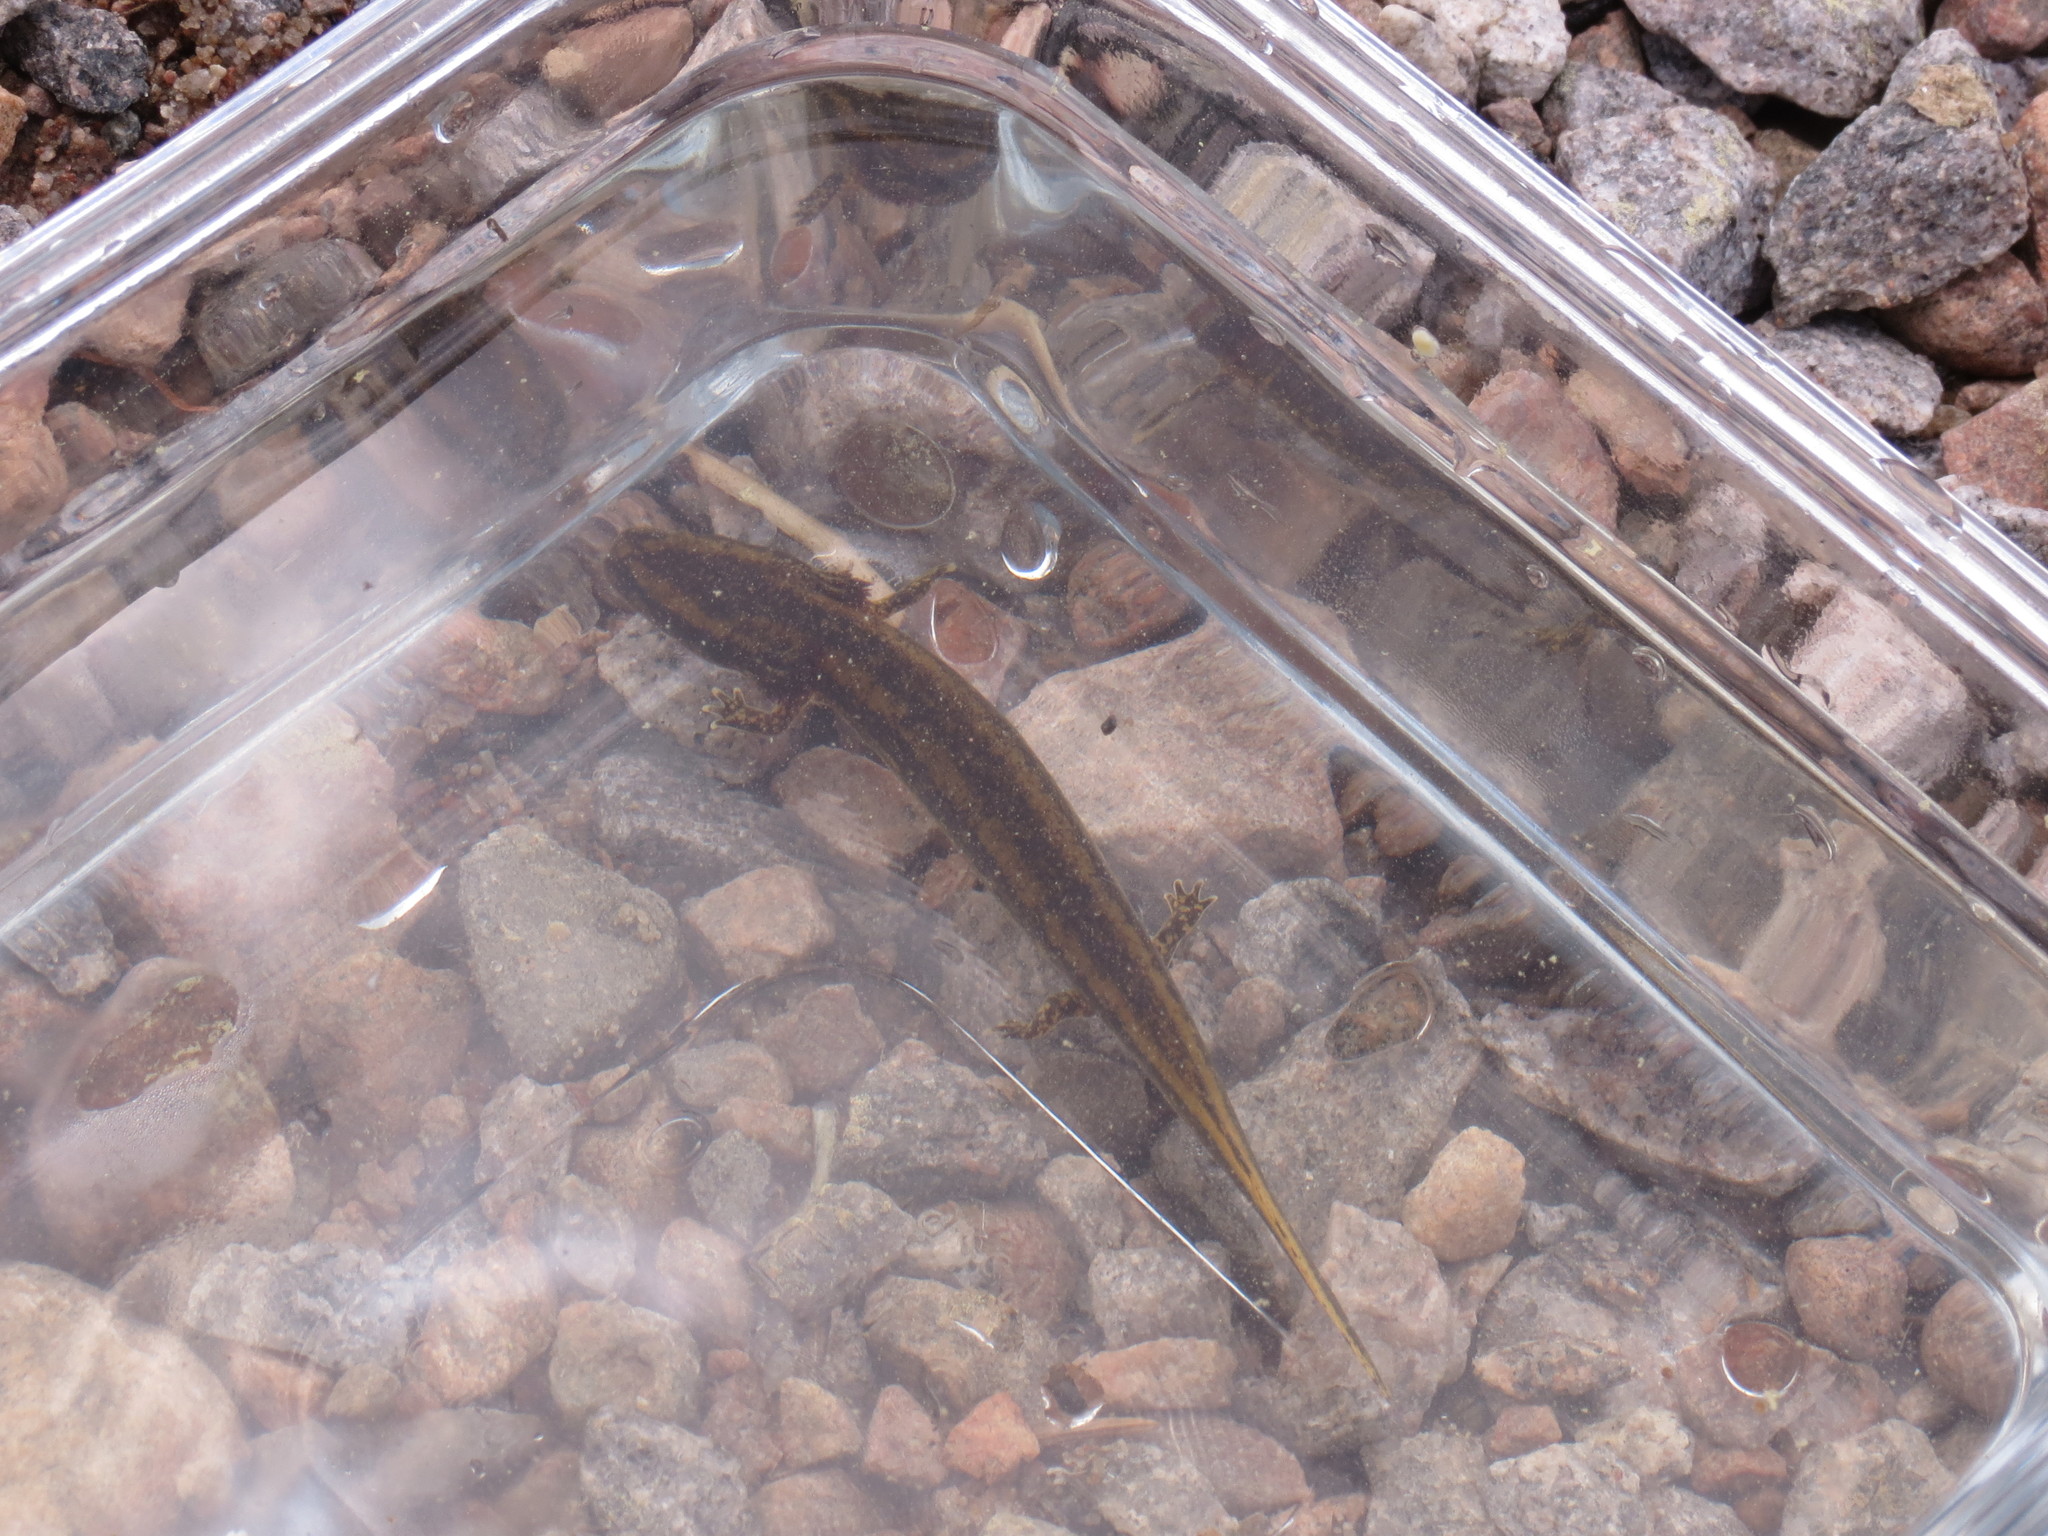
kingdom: Animalia
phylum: Chordata
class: Amphibia
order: Caudata
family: Proteidae
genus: Necturus
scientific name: Necturus maculosus
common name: Mudpuppy
